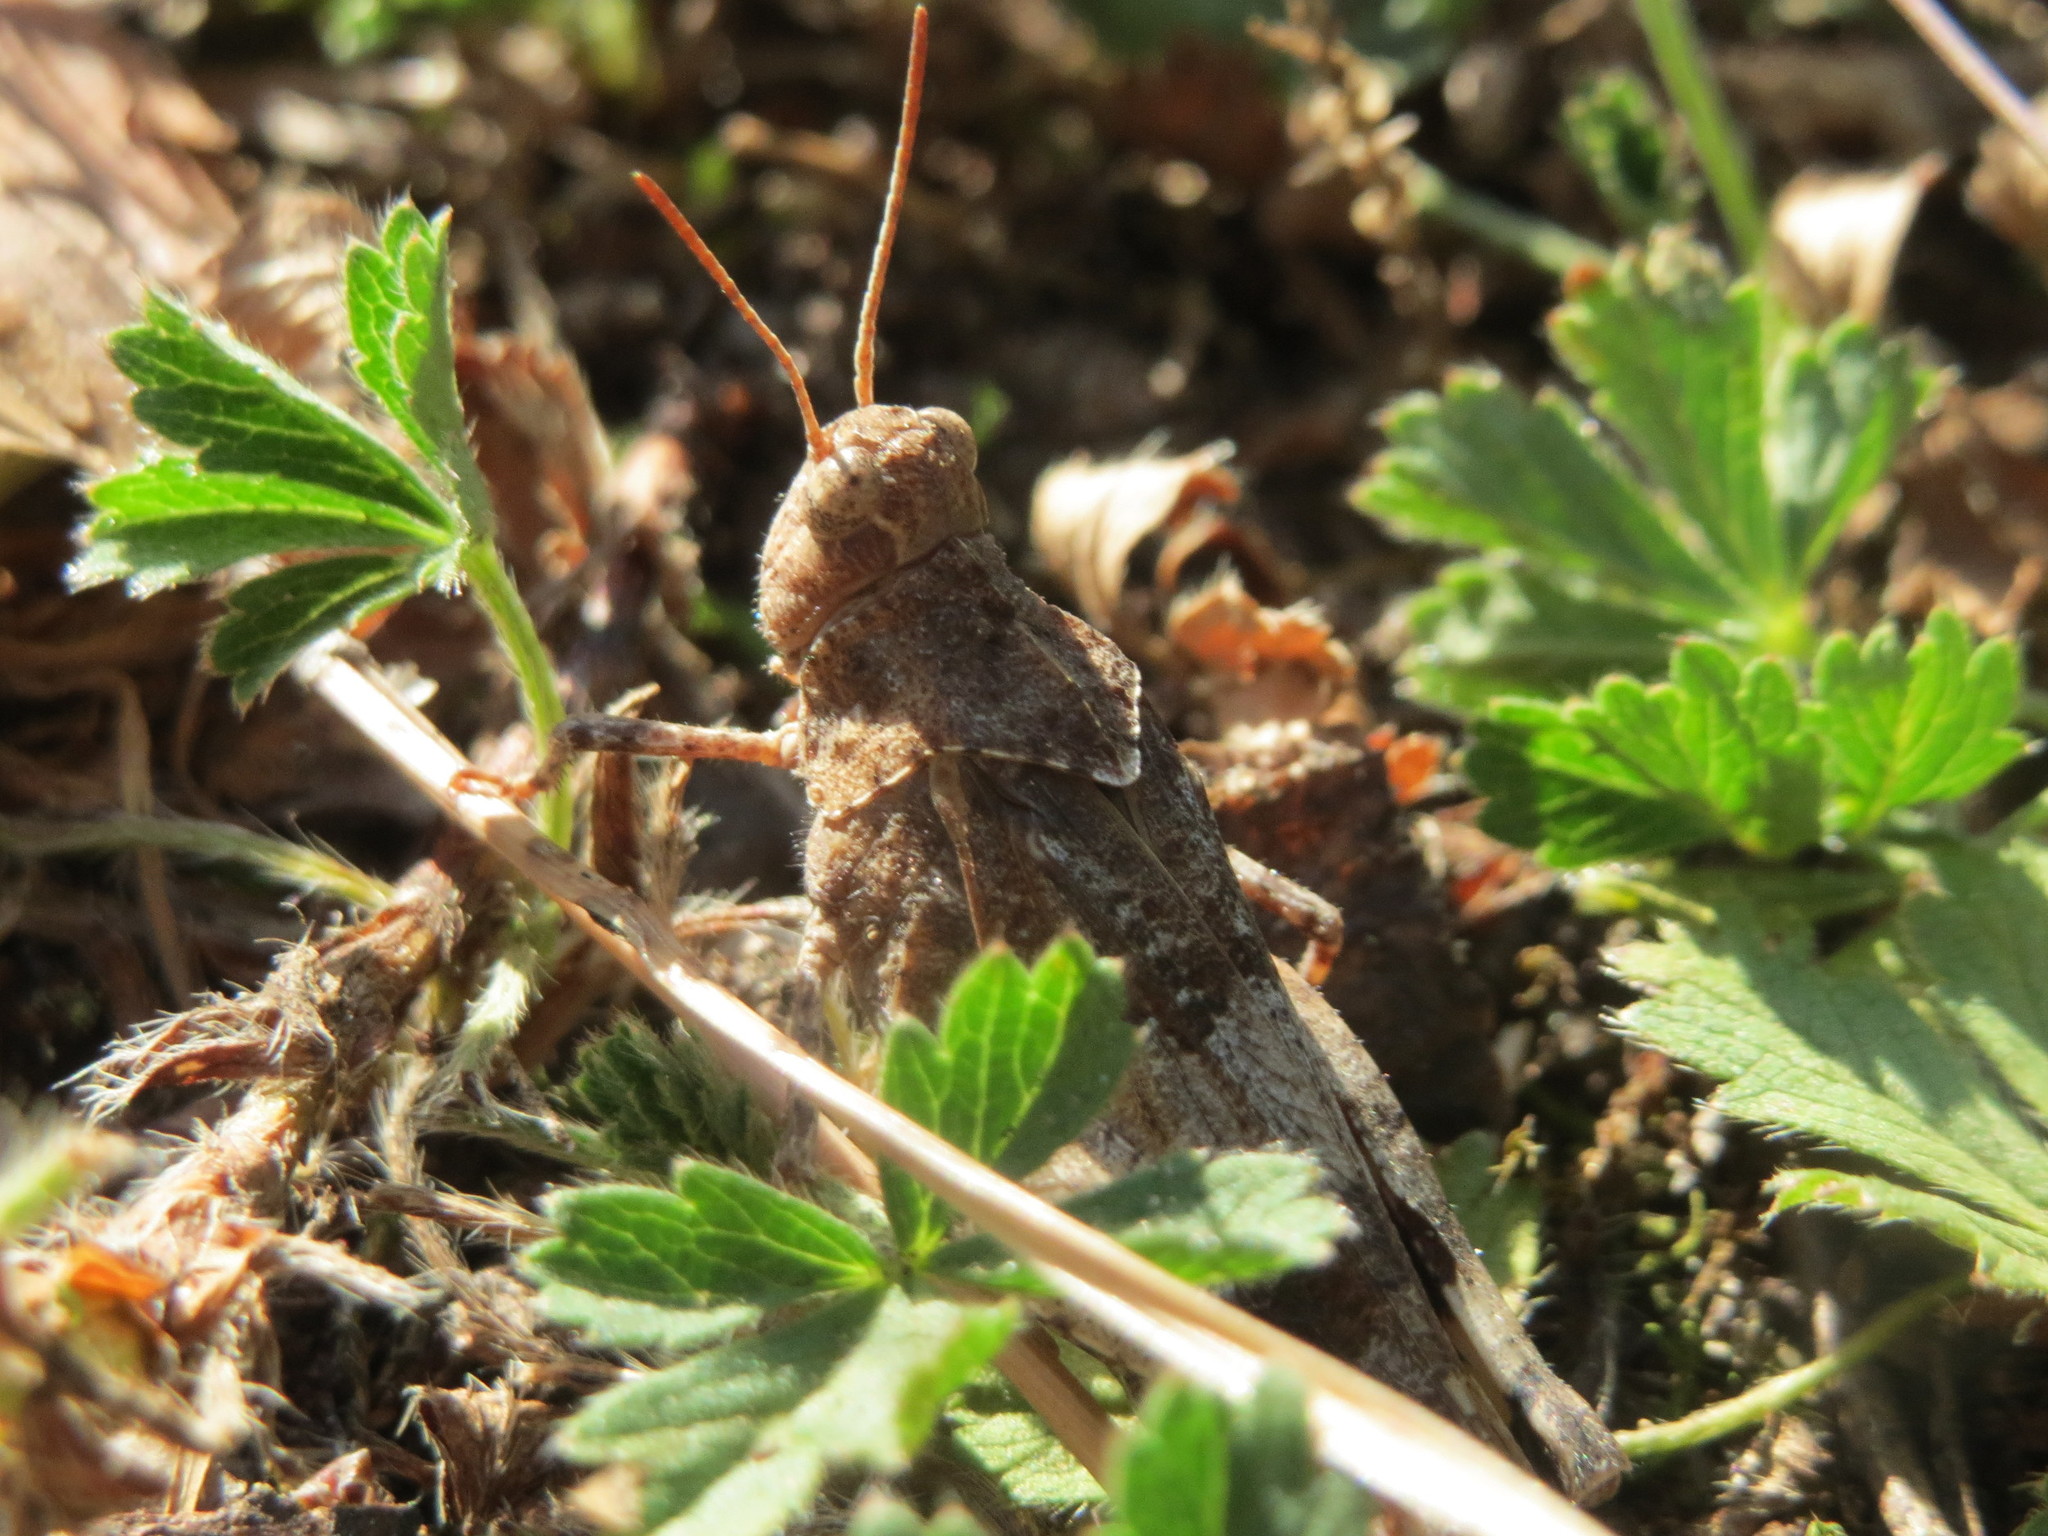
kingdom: Animalia
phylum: Arthropoda
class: Insecta
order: Orthoptera
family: Acrididae
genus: Oedipoda
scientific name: Oedipoda caerulescens
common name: Blue-winged grasshopper
